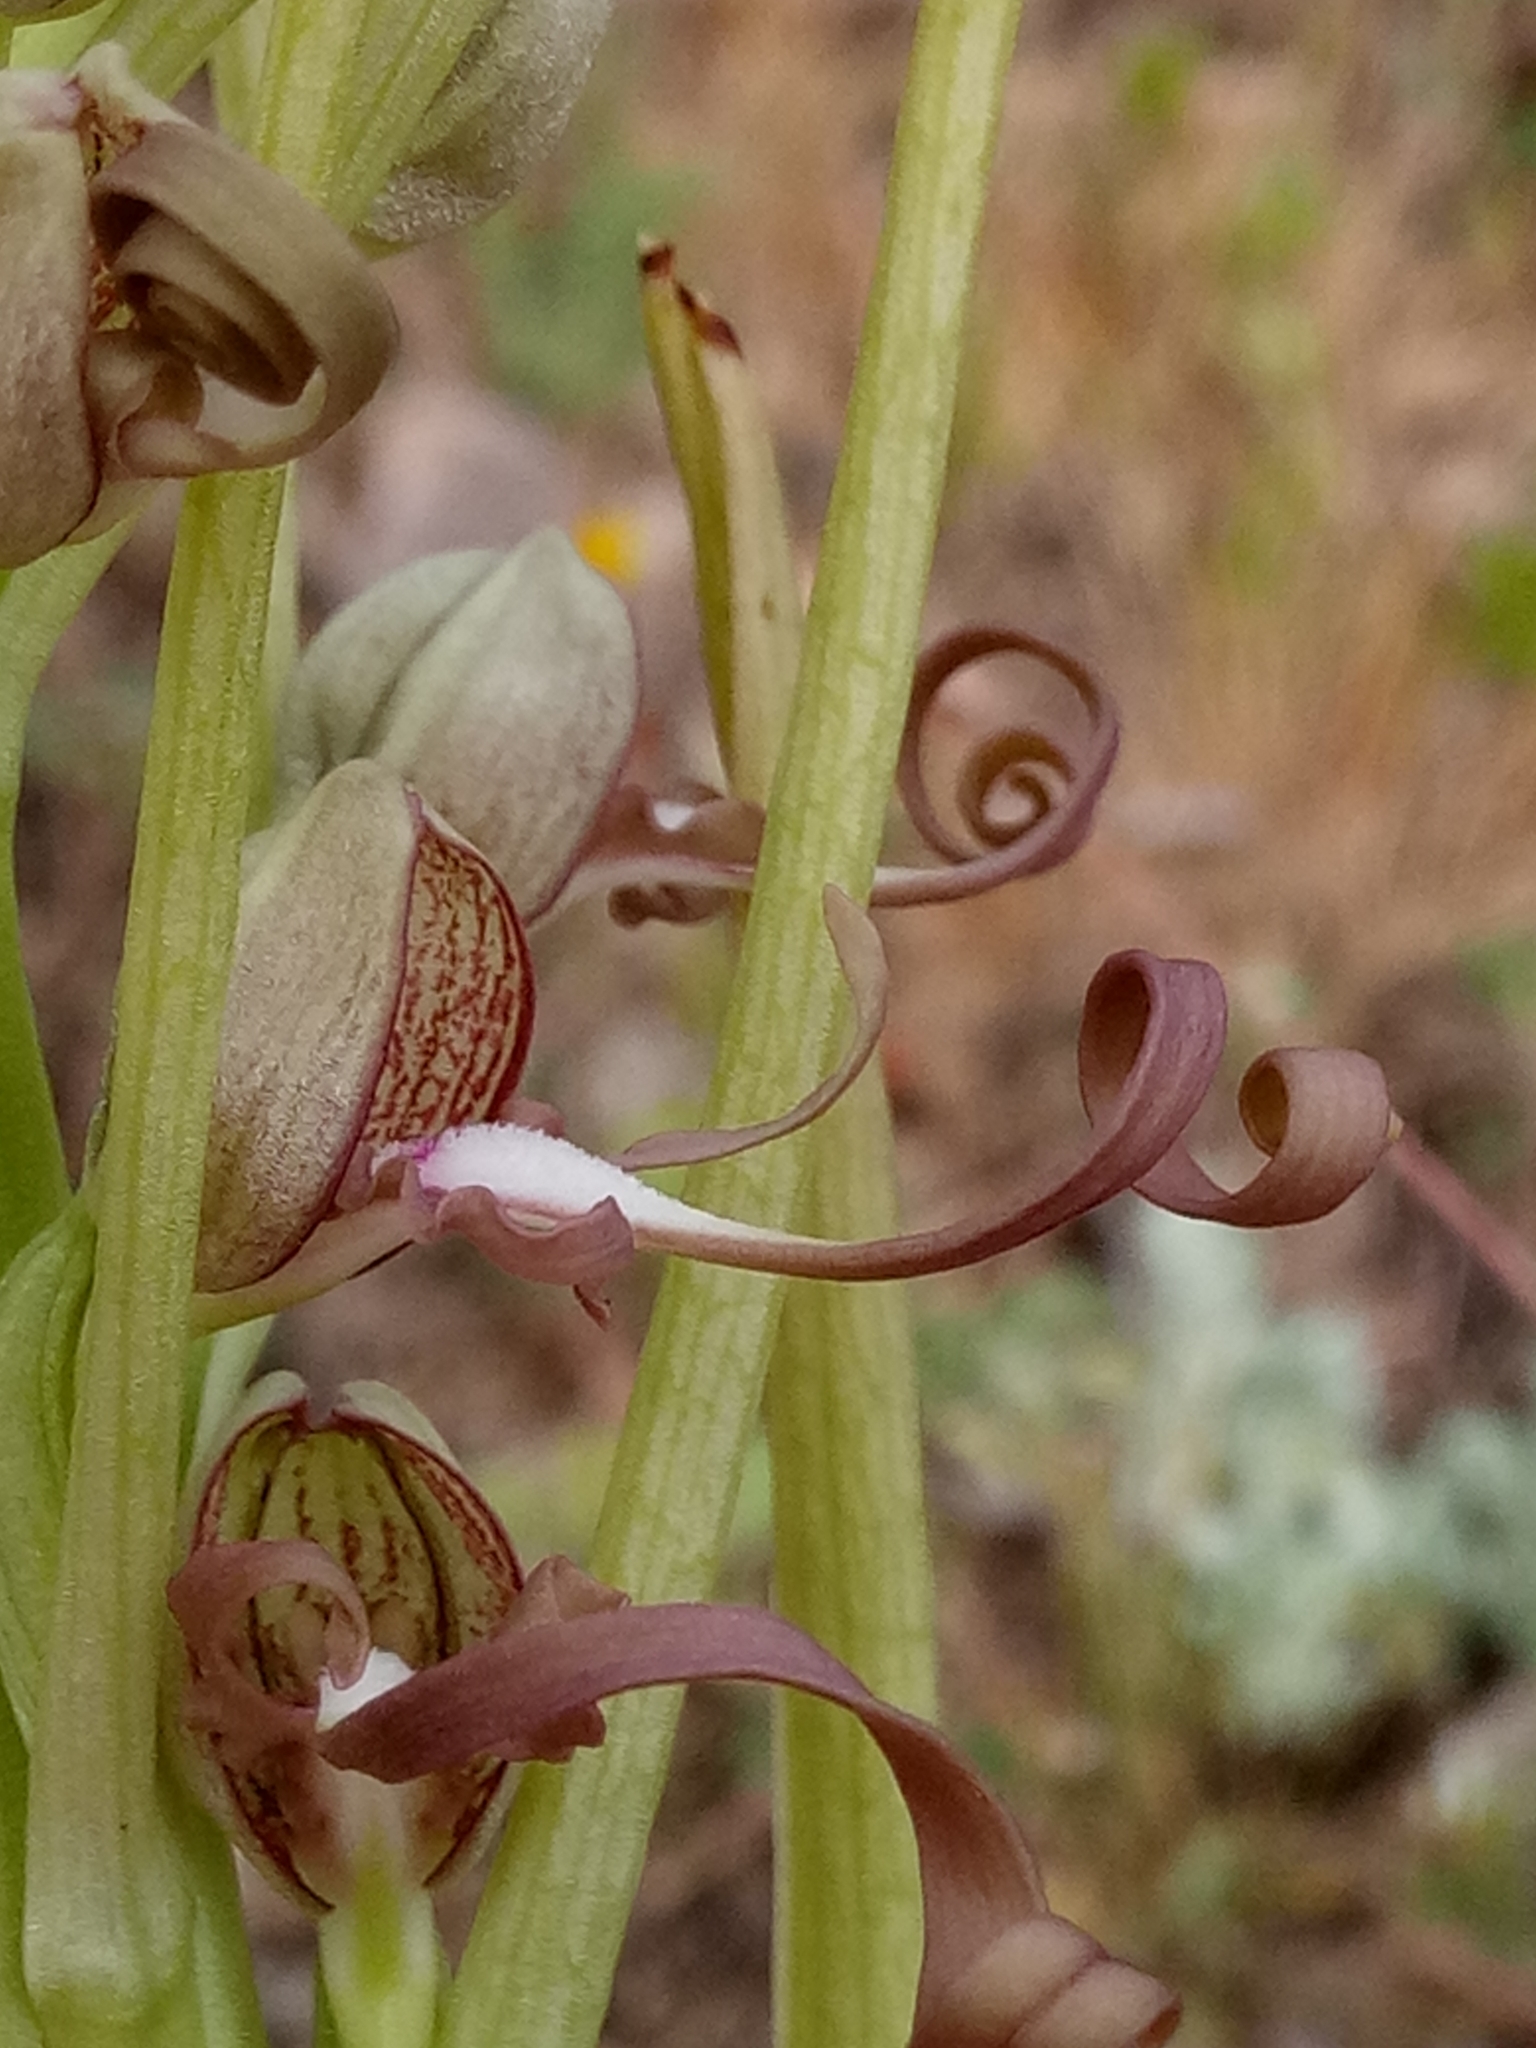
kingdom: Plantae
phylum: Tracheophyta
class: Liliopsida
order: Asparagales
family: Orchidaceae
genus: Himantoglossum
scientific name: Himantoglossum hircinum
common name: Lizard orchid
